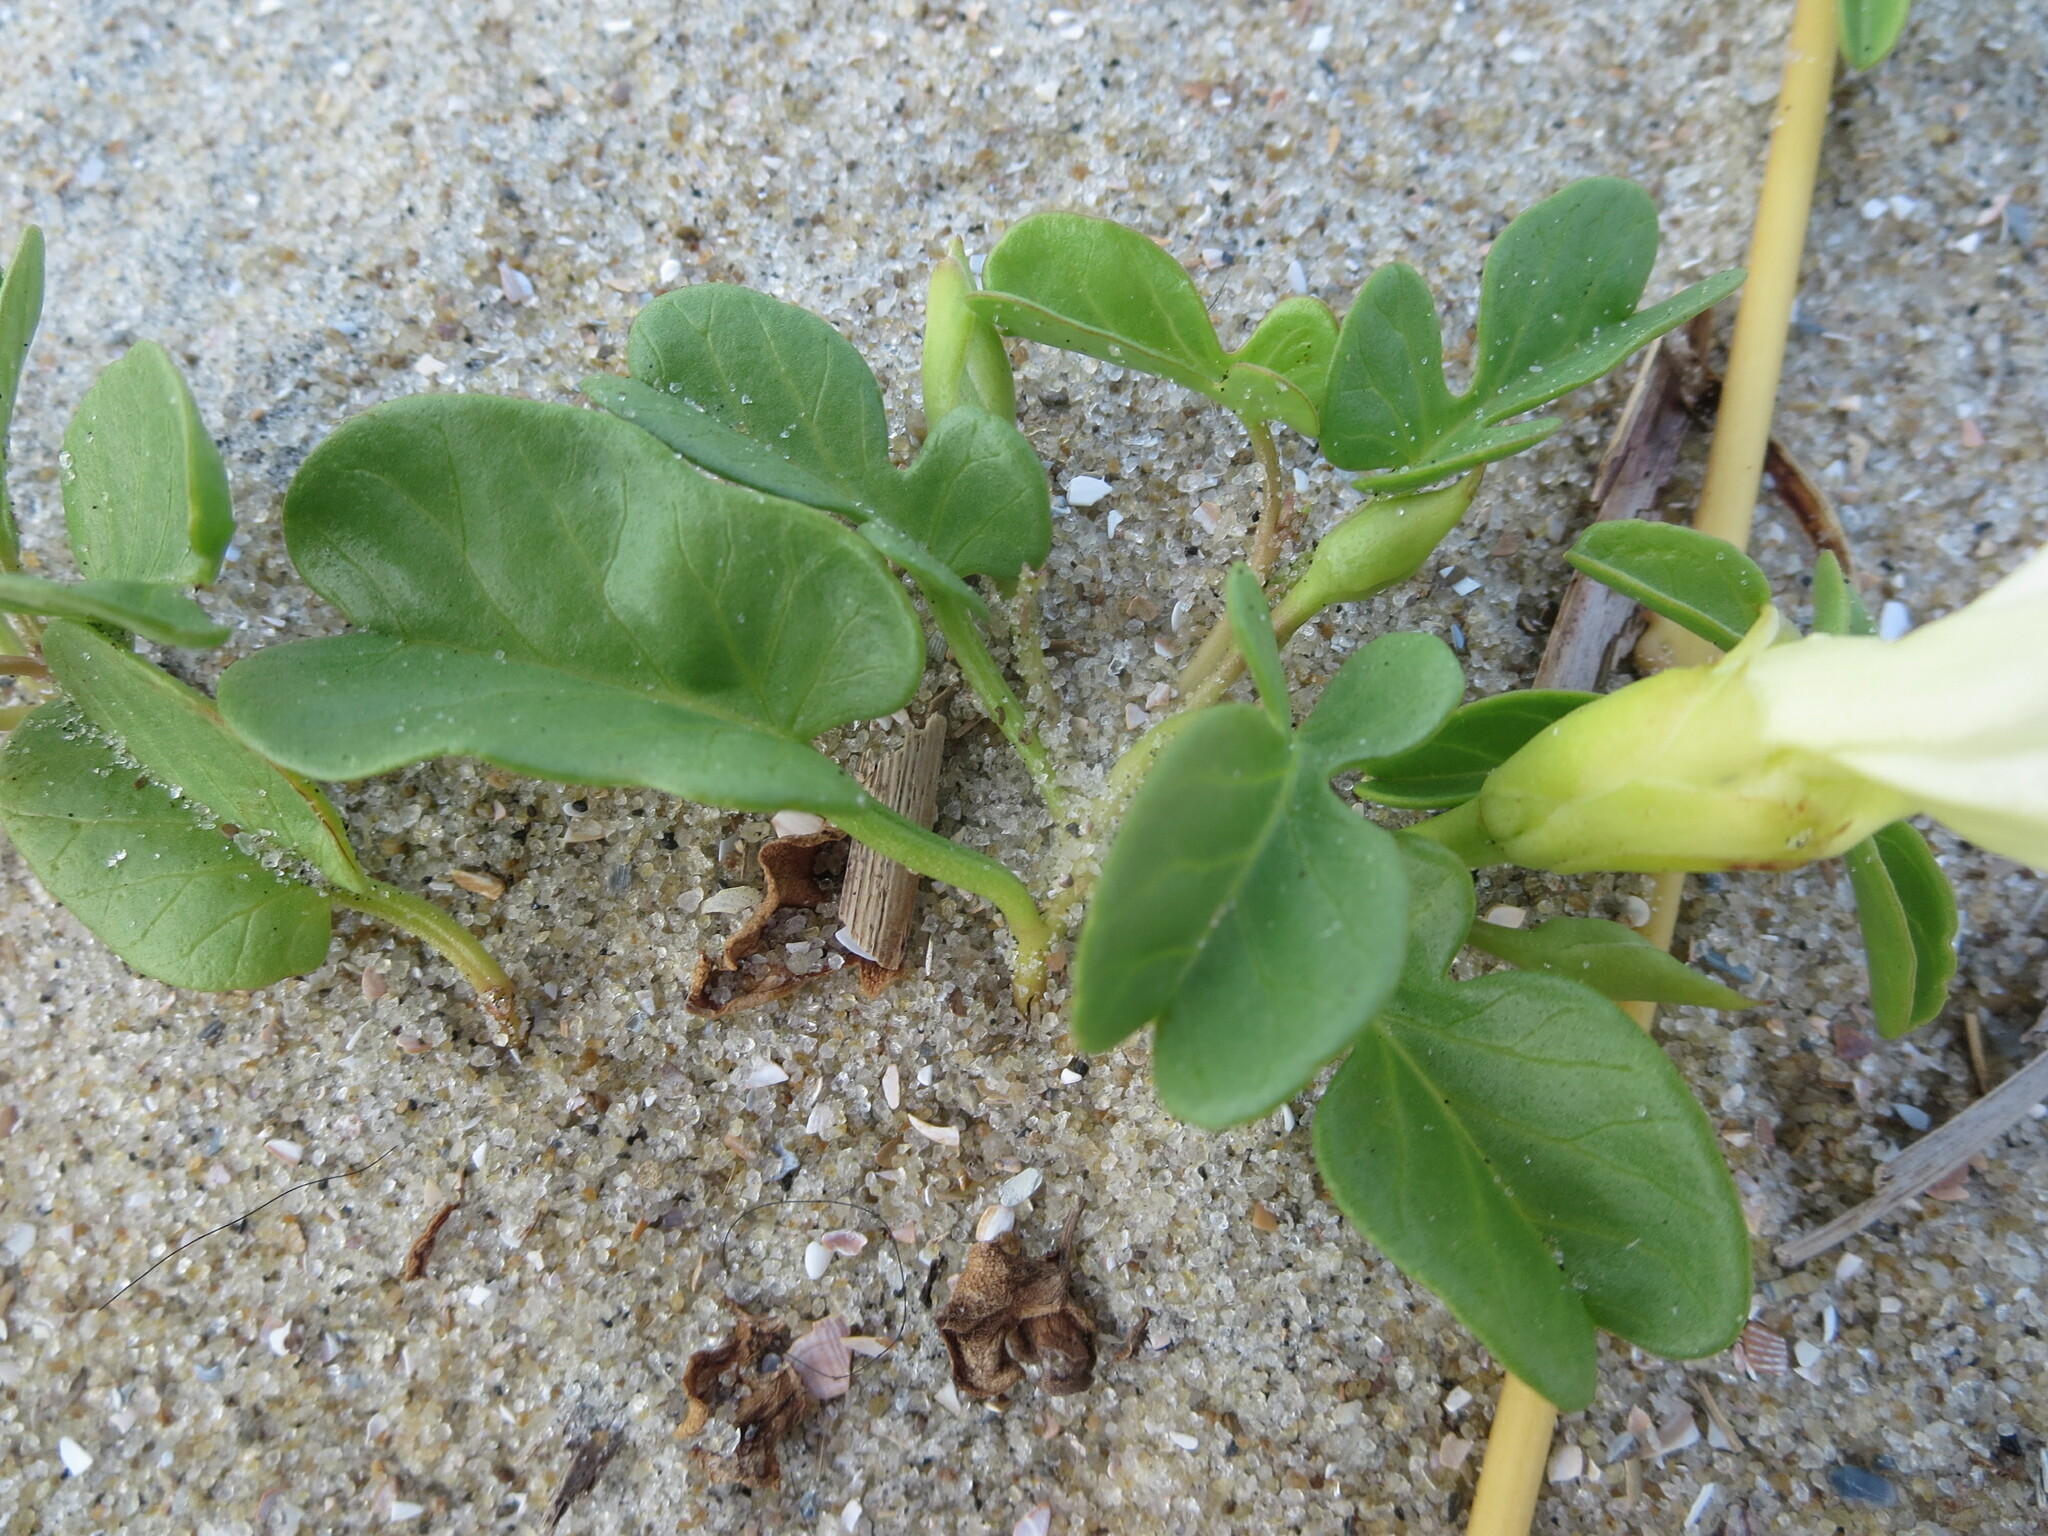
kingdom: Plantae
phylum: Tracheophyta
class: Magnoliopsida
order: Solanales
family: Convolvulaceae
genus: Ipomoea
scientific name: Ipomoea imperati
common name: Fiddle-leaf morning-glory
